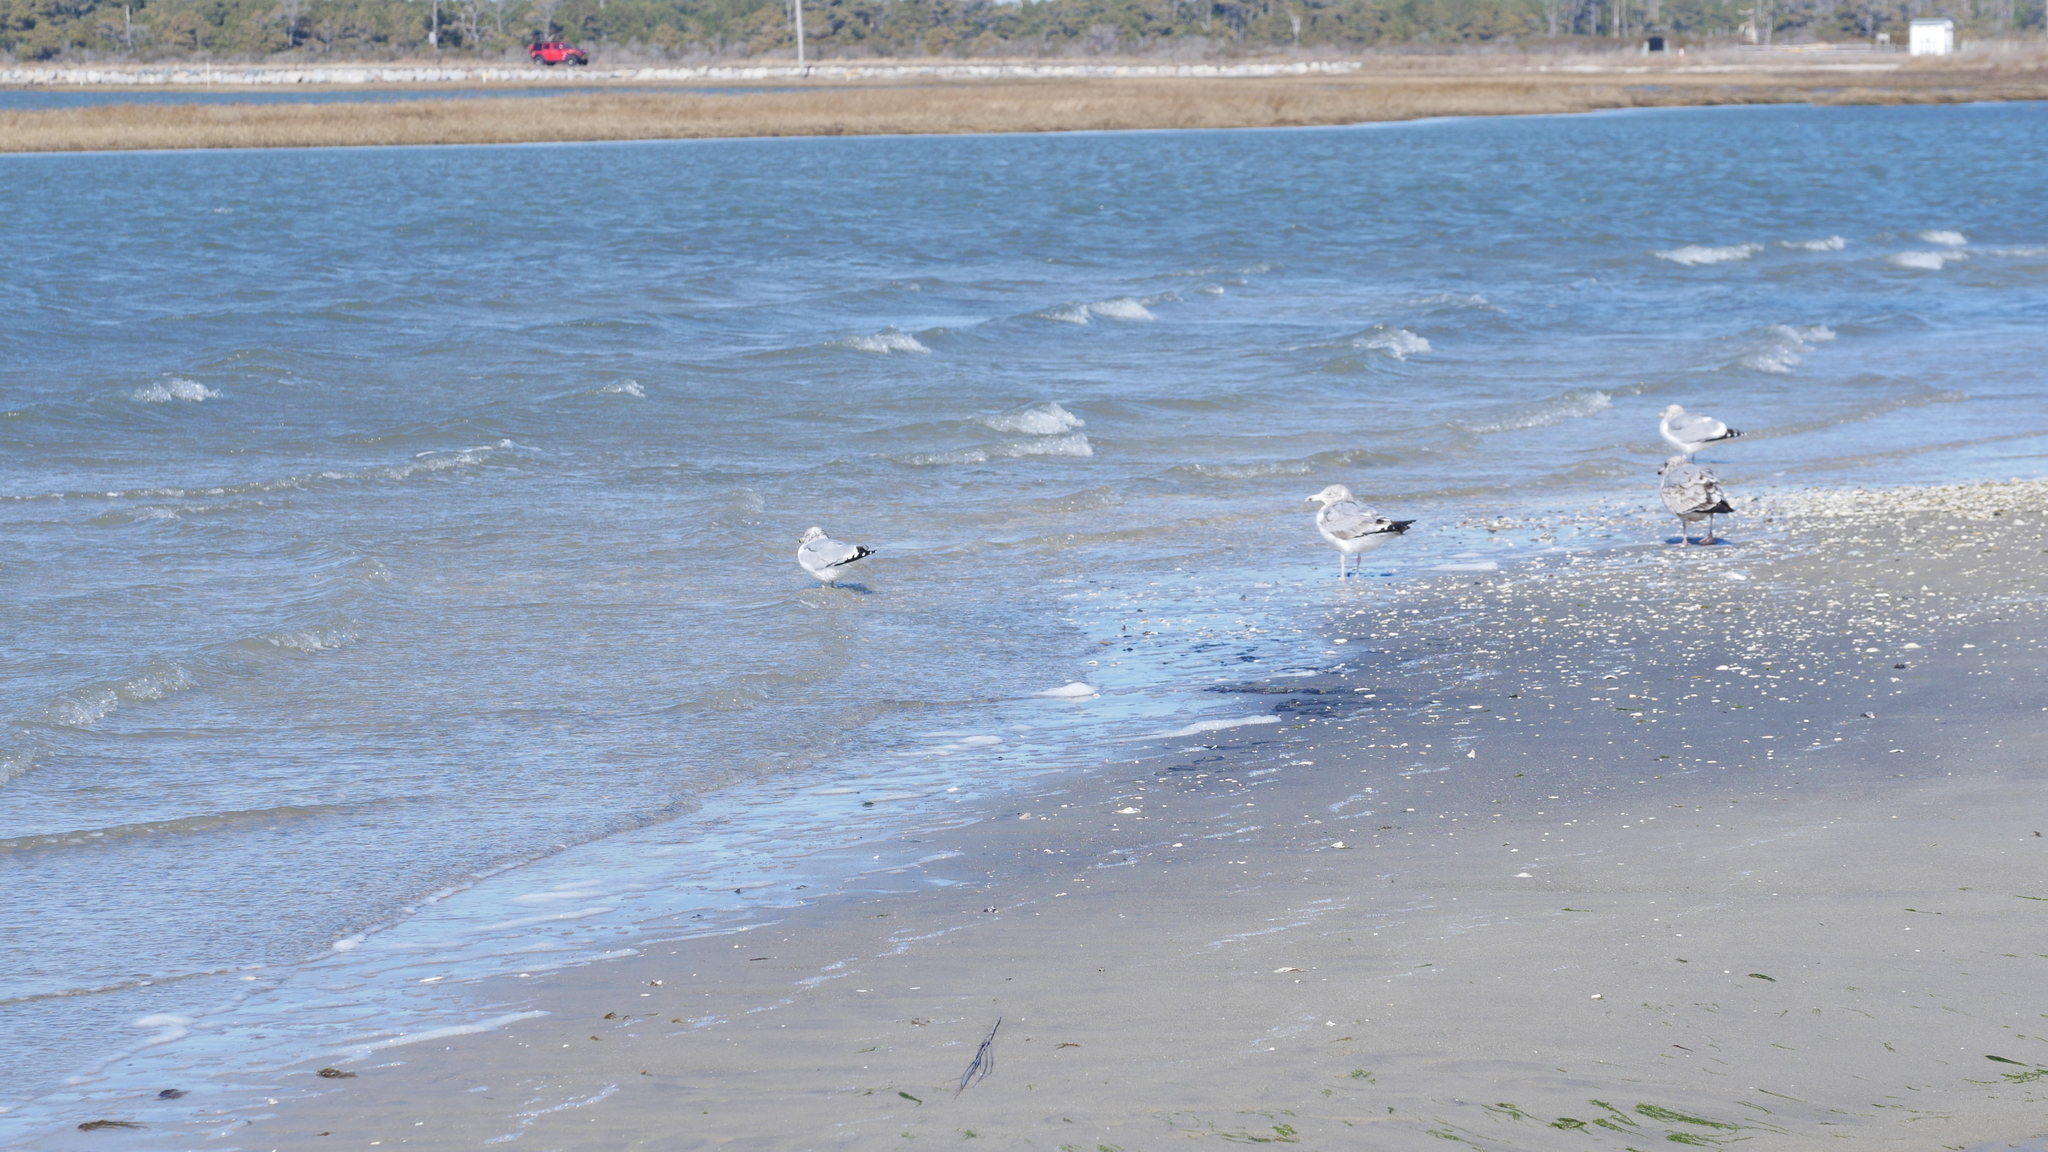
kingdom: Animalia
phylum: Chordata
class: Aves
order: Charadriiformes
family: Laridae
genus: Larus
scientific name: Larus delawarensis
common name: Ring-billed gull
